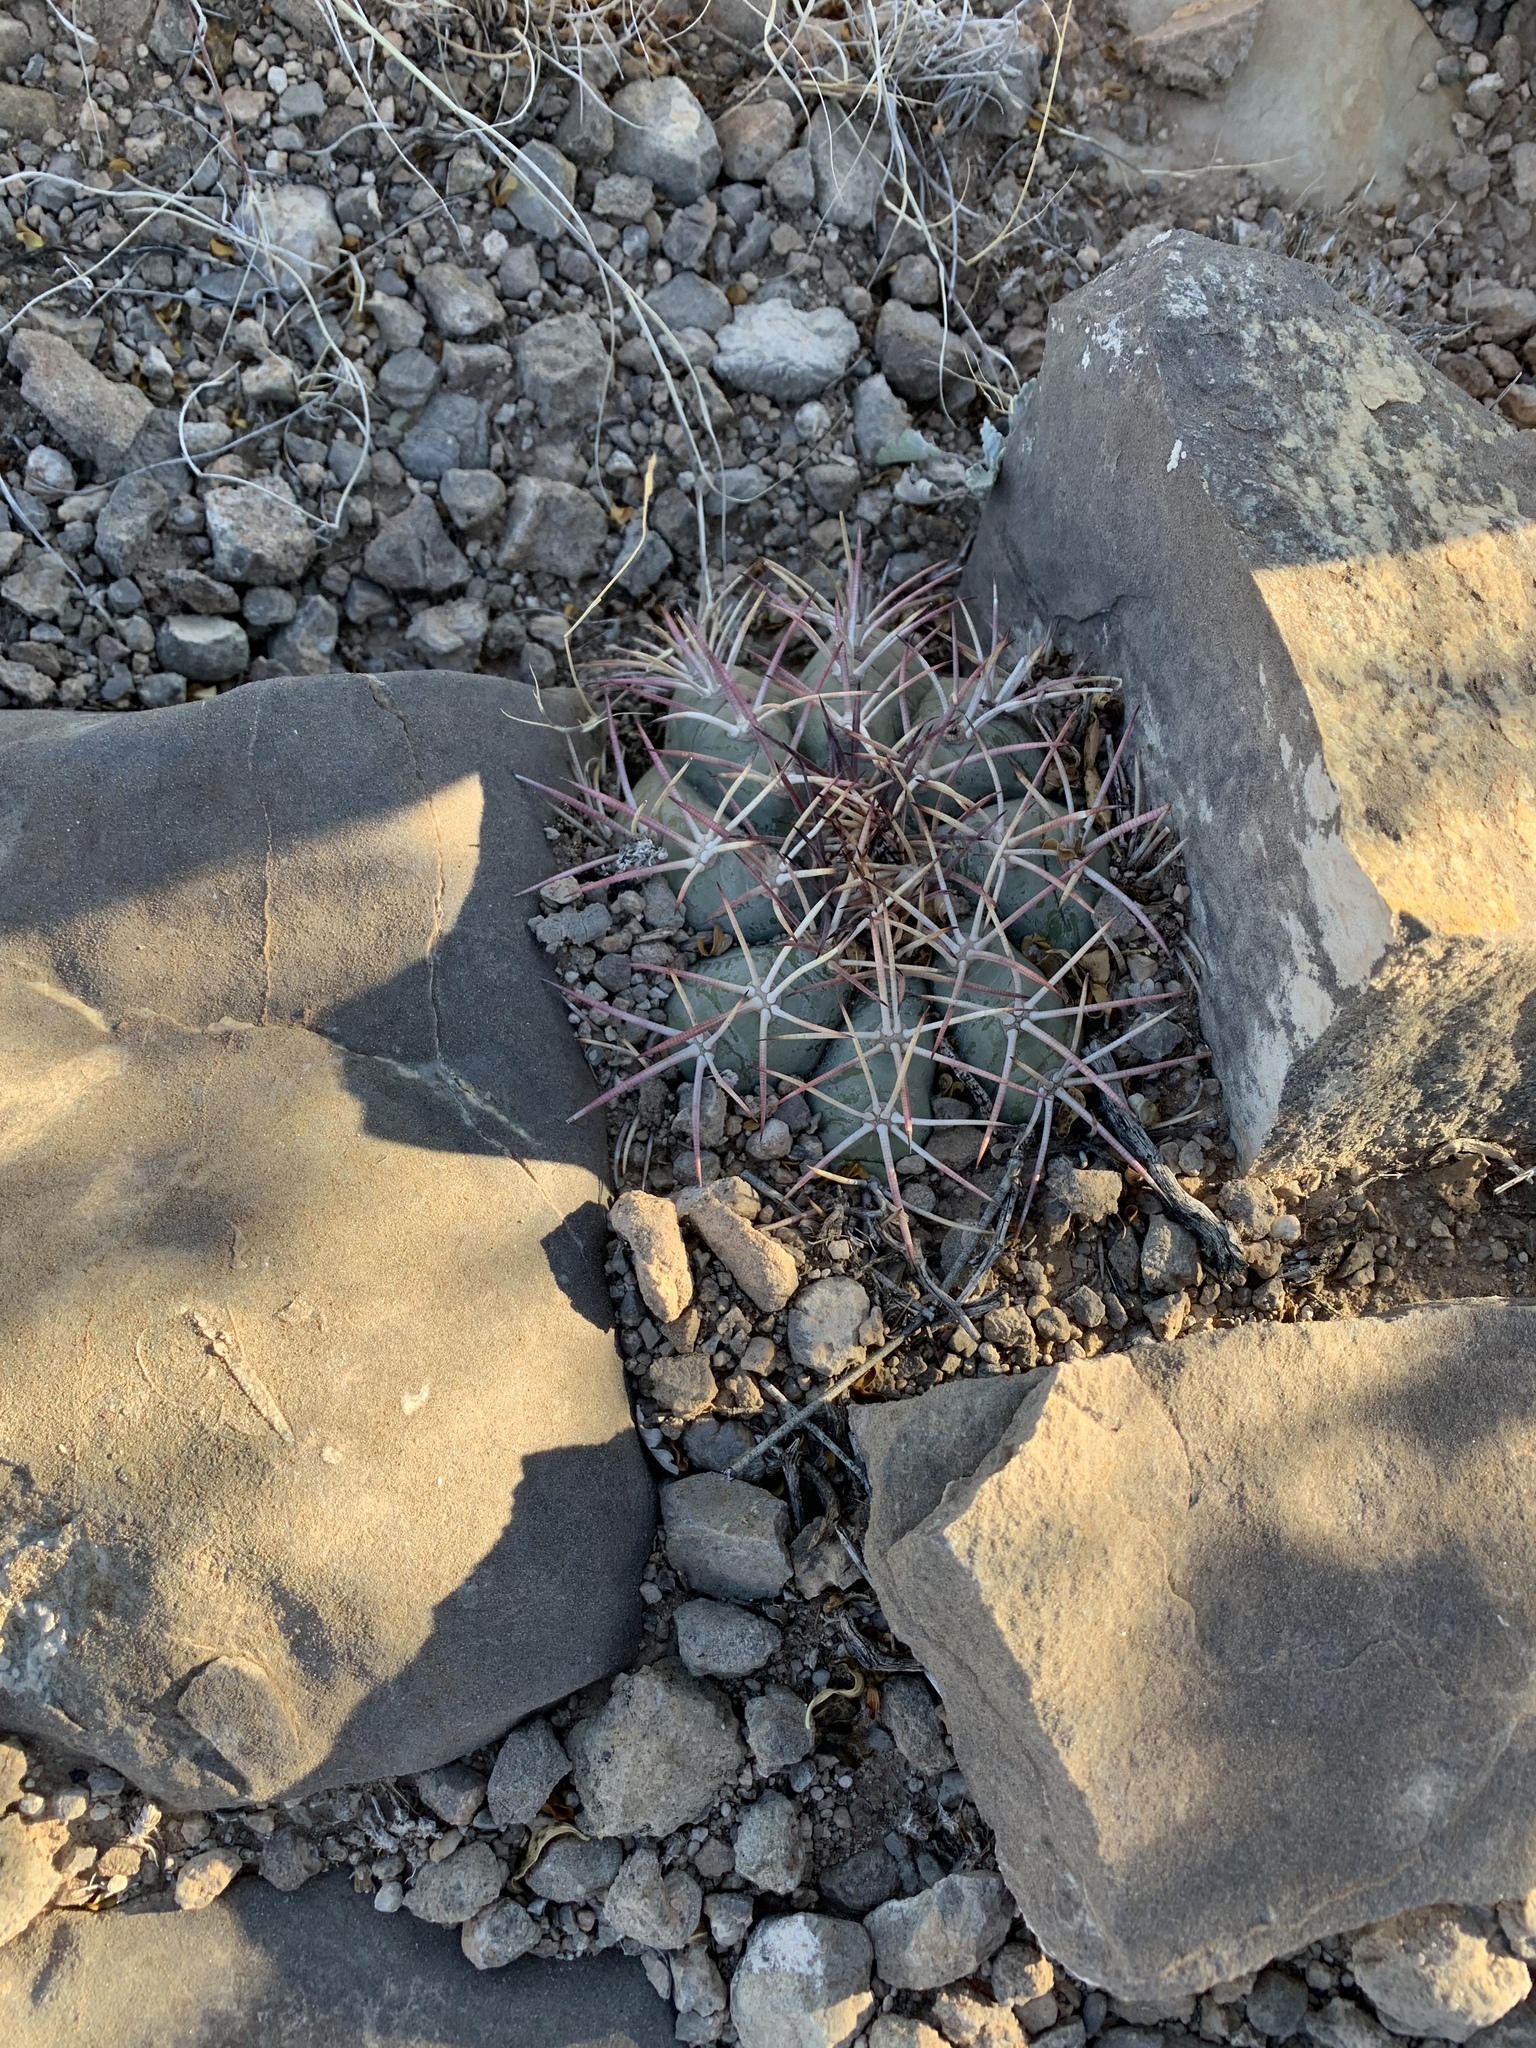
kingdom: Plantae
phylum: Tracheophyta
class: Magnoliopsida
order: Caryophyllales
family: Cactaceae
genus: Echinocactus
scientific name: Echinocactus horizonthalonius
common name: Devilshead
